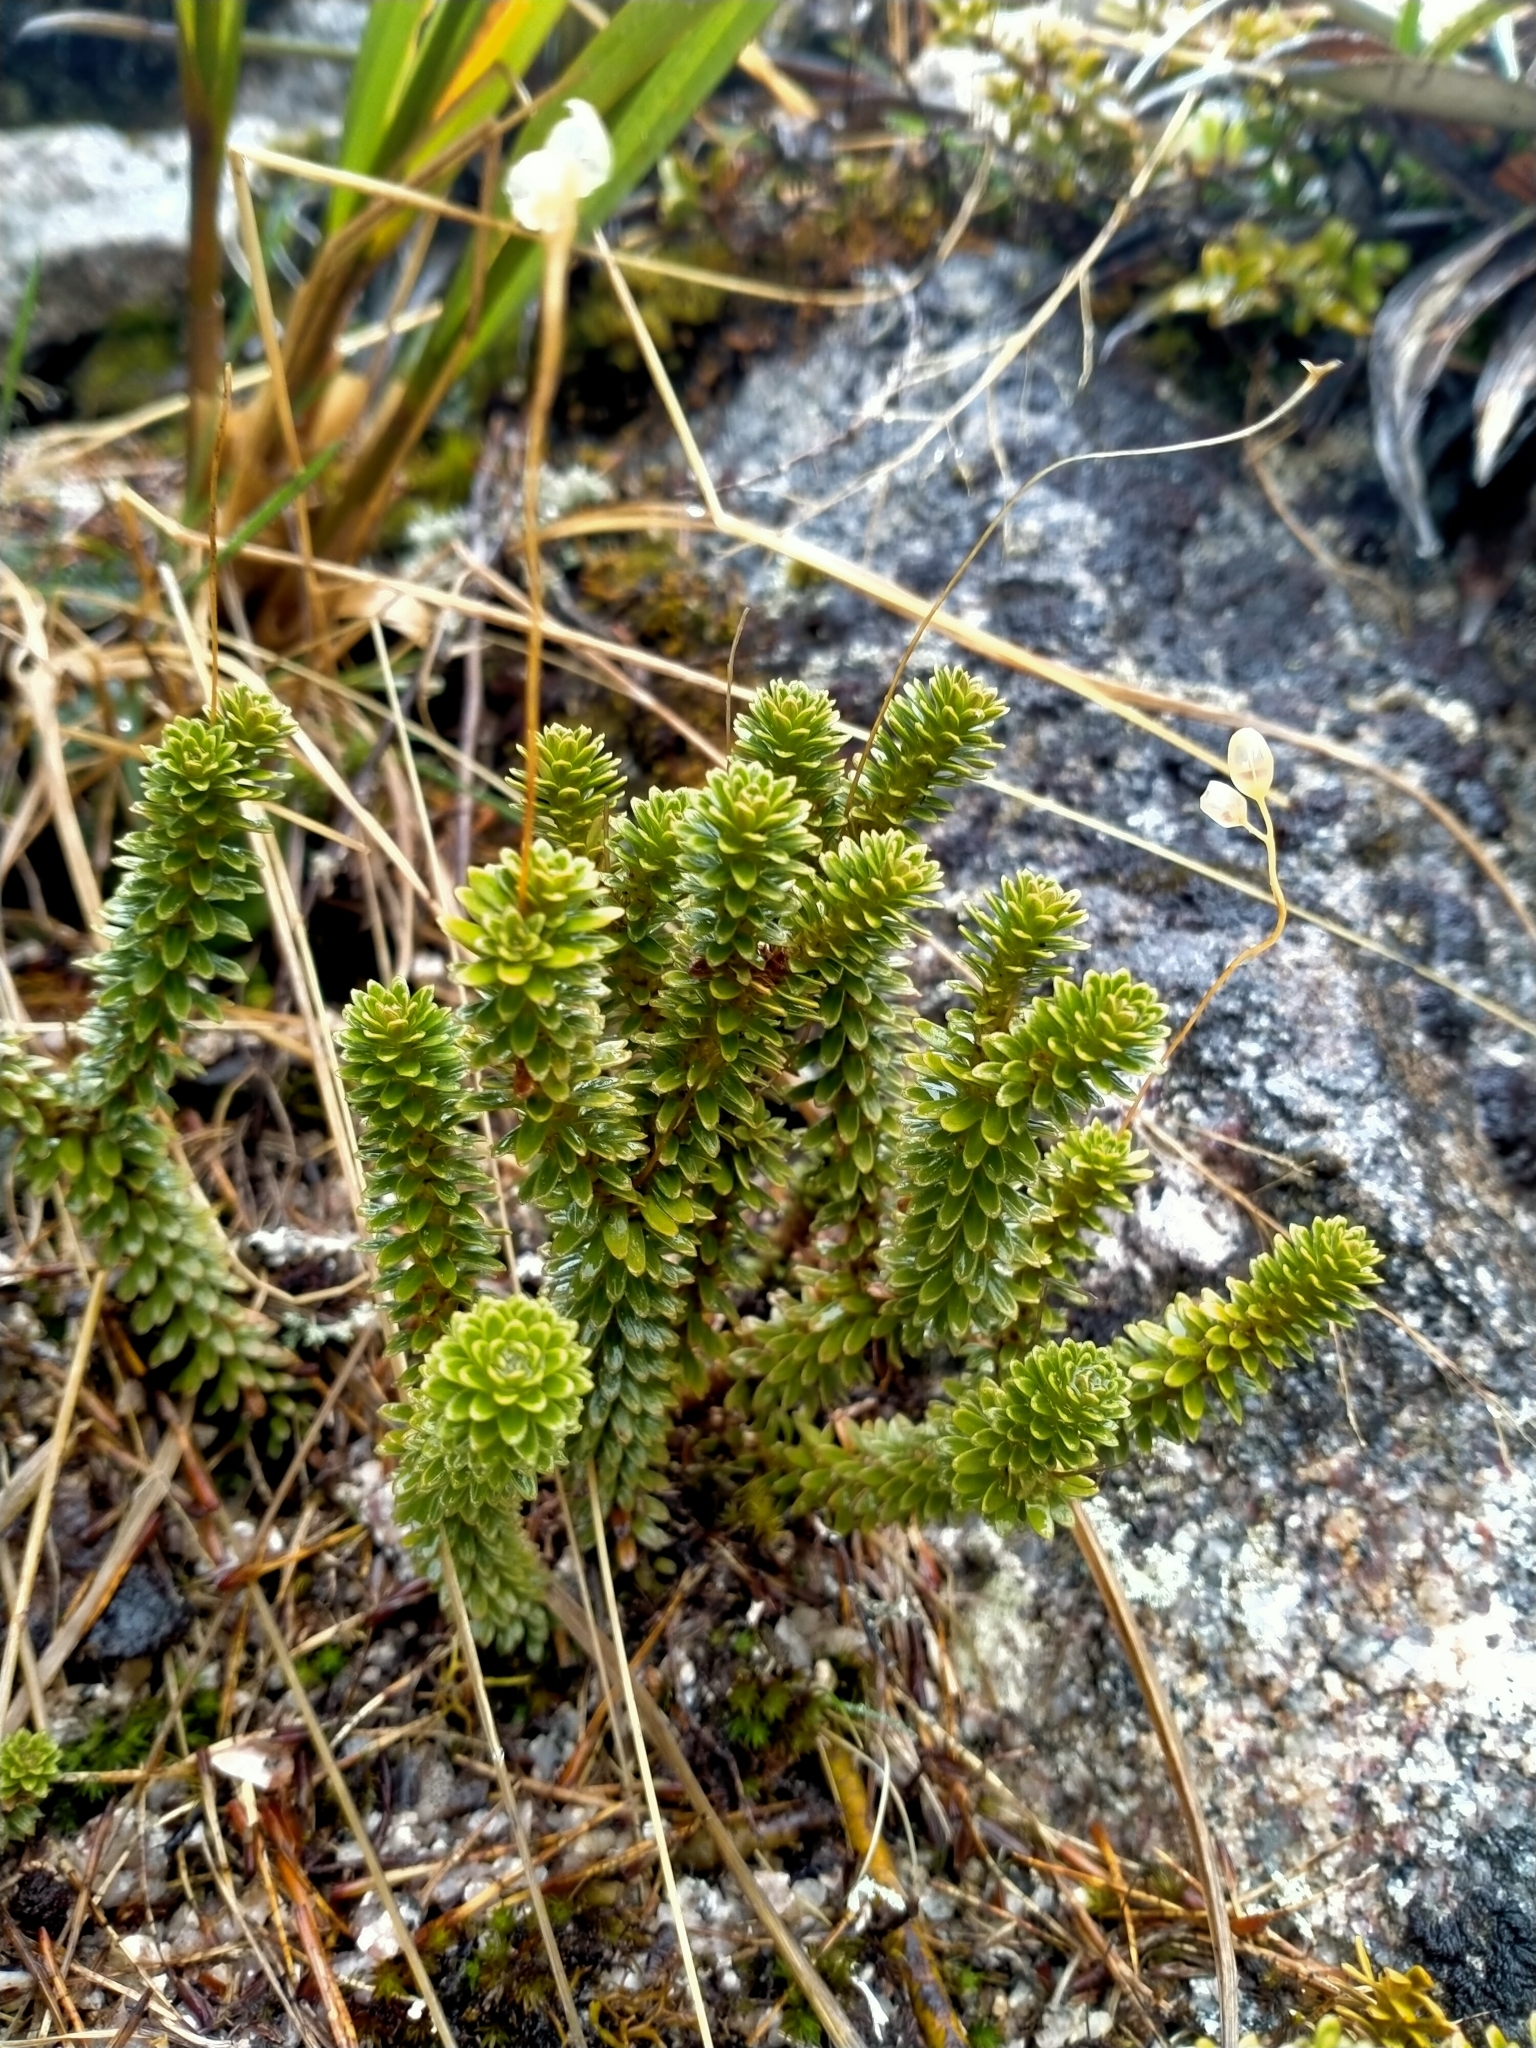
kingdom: Plantae
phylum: Tracheophyta
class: Magnoliopsida
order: Asterales
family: Stylidiaceae
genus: Forstera
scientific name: Forstera mackayi
